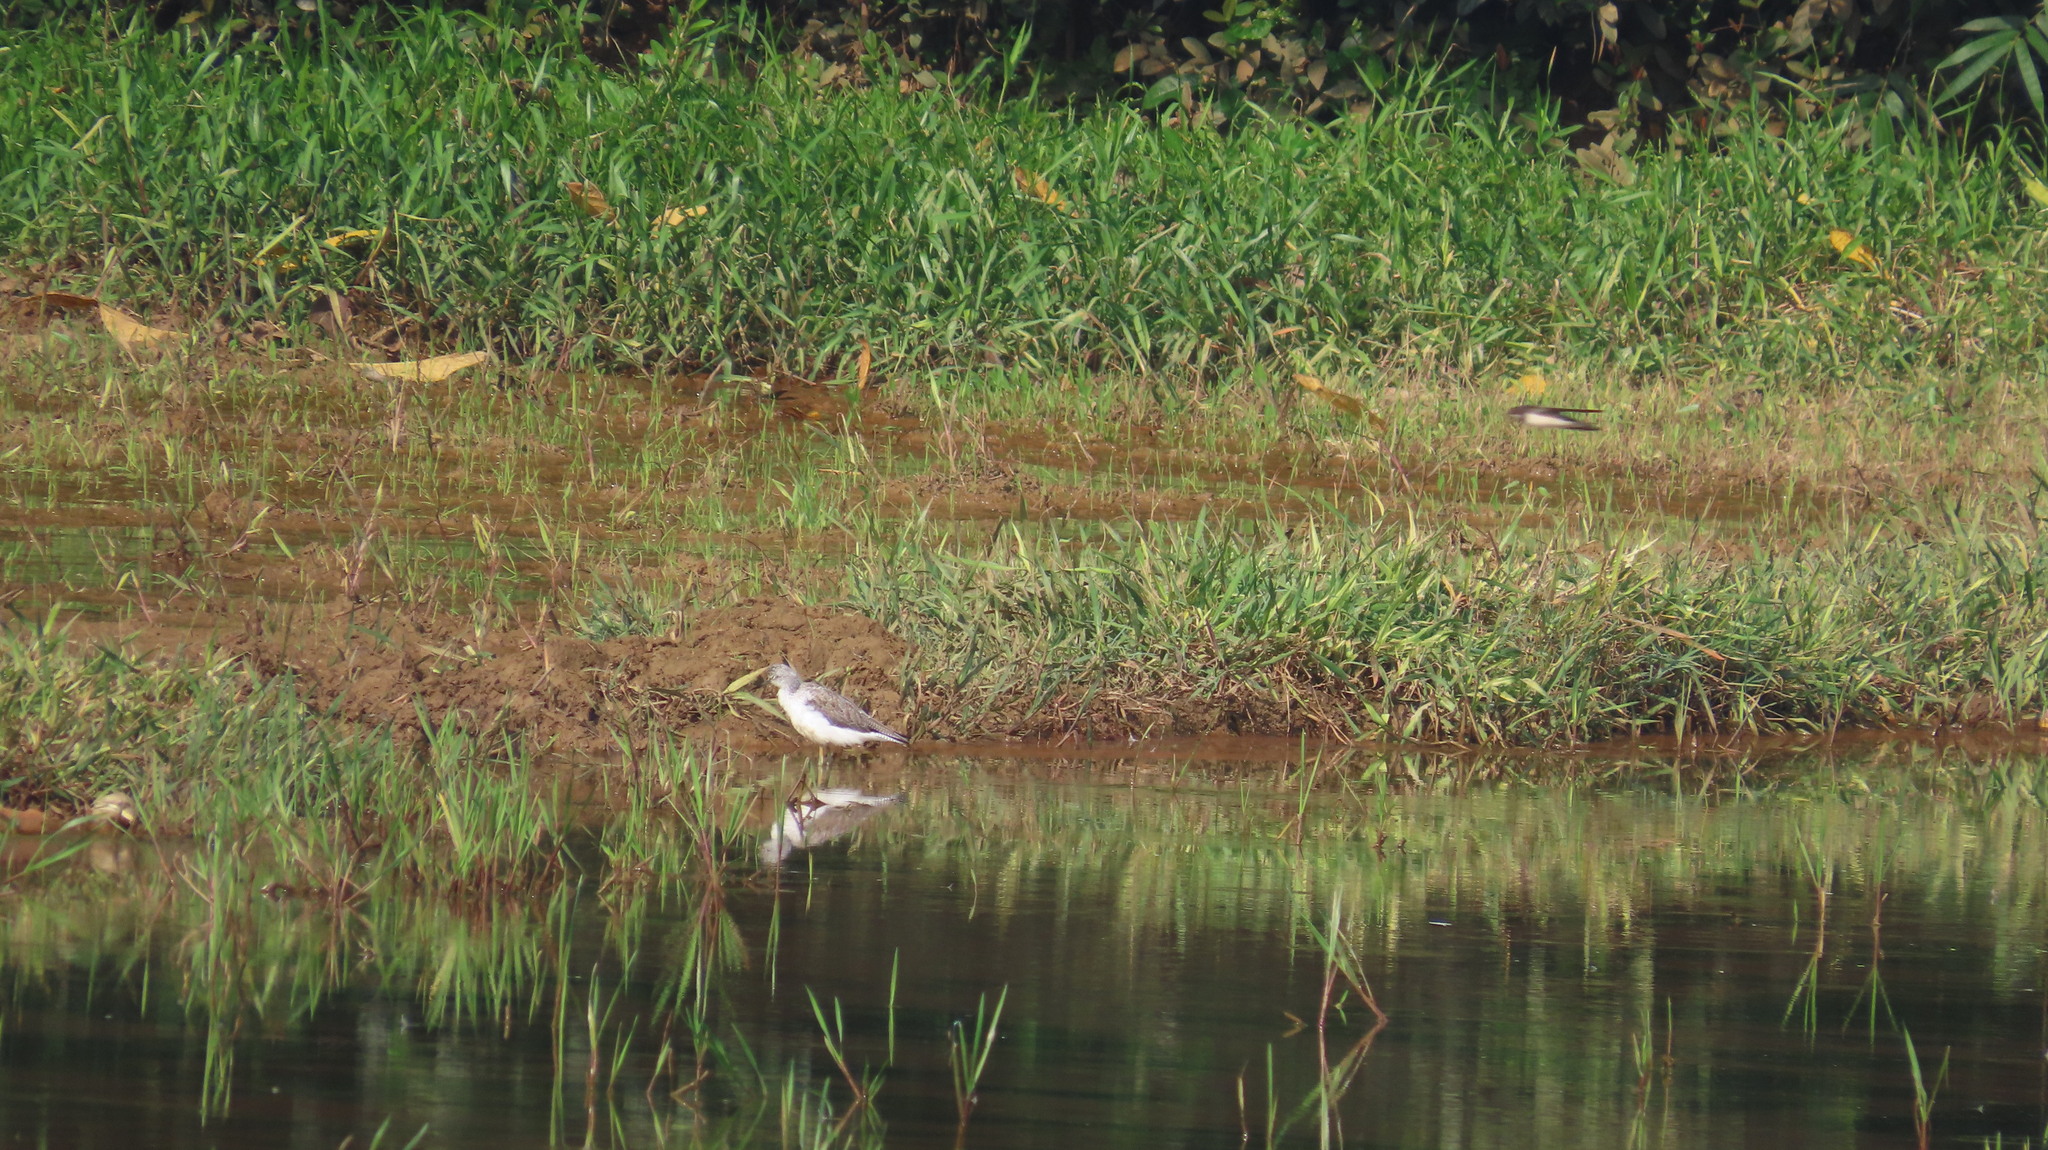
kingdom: Animalia
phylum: Chordata
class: Aves
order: Charadriiformes
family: Scolopacidae
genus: Tringa
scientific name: Tringa nebularia
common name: Common greenshank
